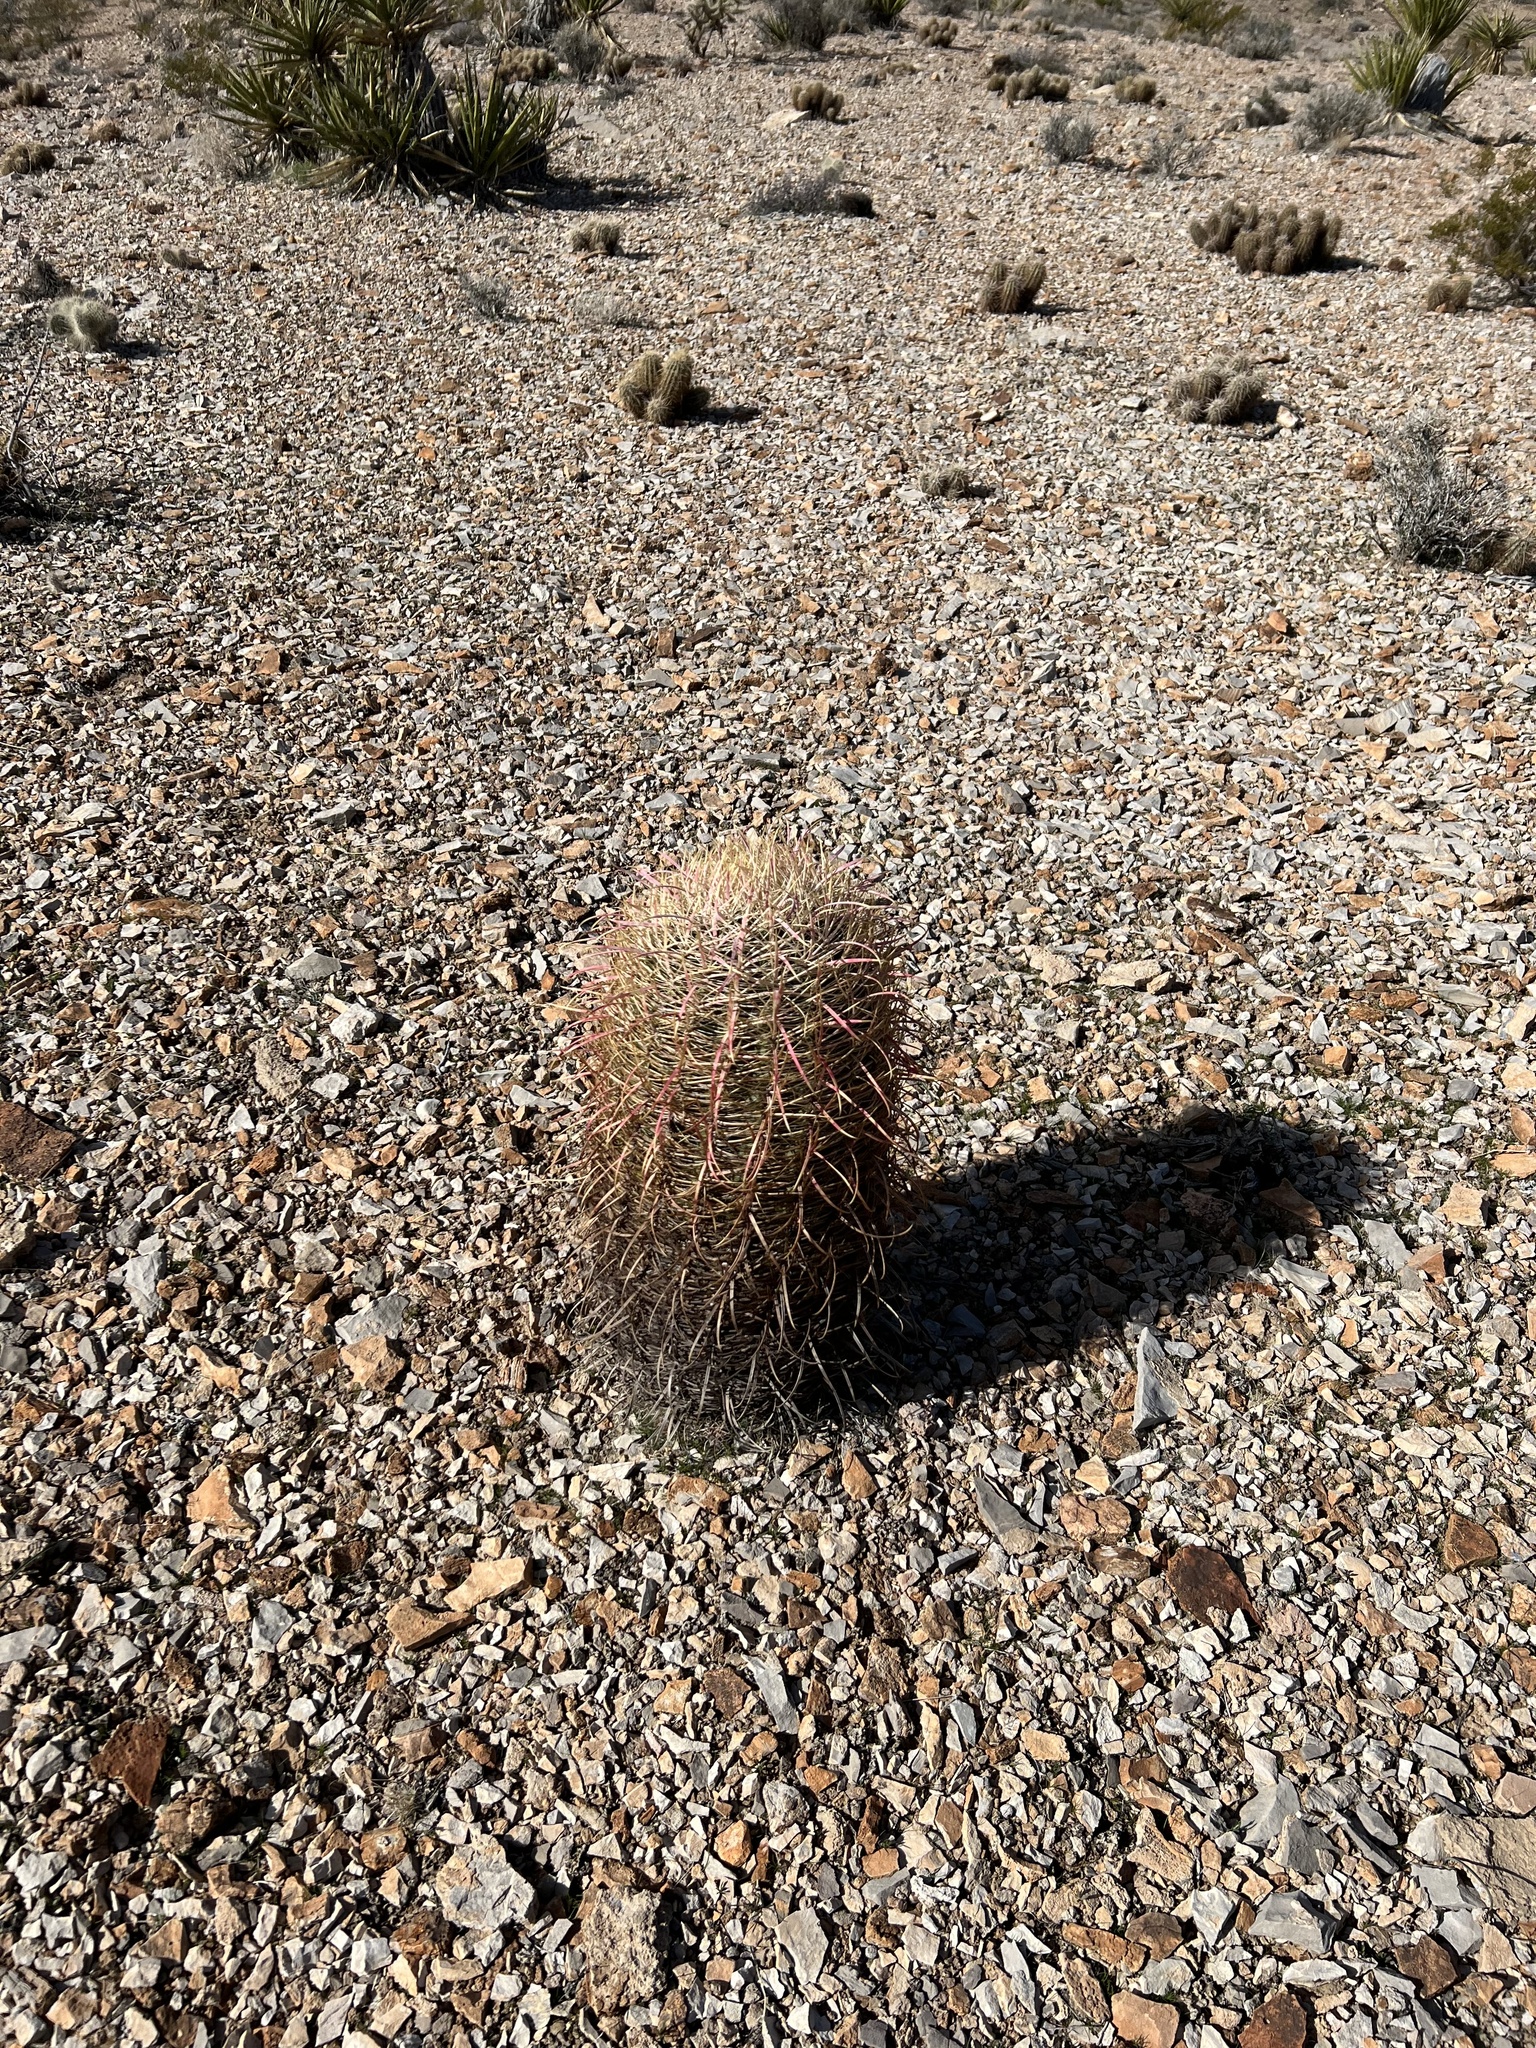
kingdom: Plantae
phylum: Tracheophyta
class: Magnoliopsida
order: Caryophyllales
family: Cactaceae
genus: Ferocactus
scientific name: Ferocactus cylindraceus
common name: California barrel cactus
